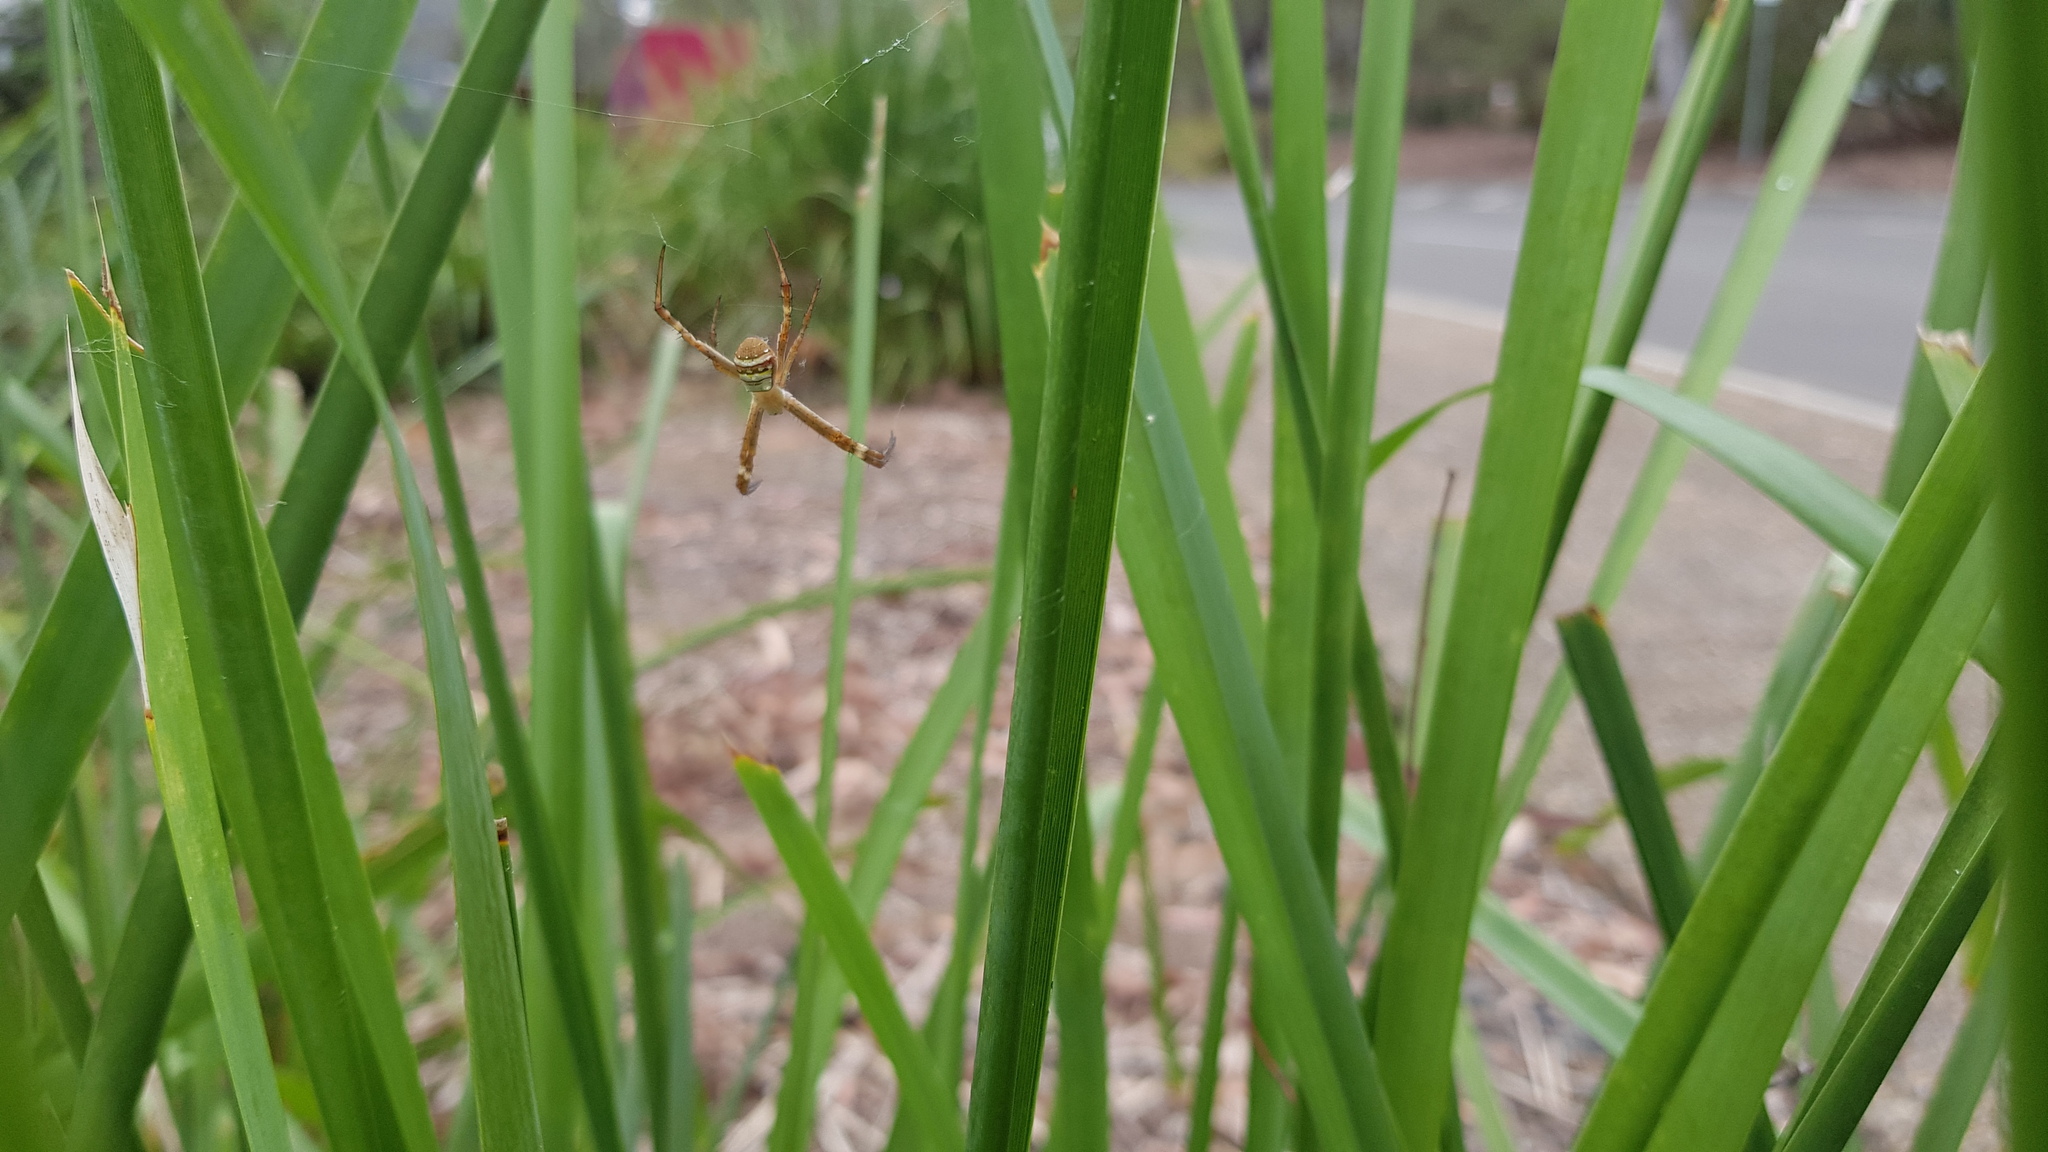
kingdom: Animalia
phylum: Arthropoda
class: Arachnida
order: Araneae
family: Araneidae
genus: Argiope
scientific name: Argiope keyserlingi
